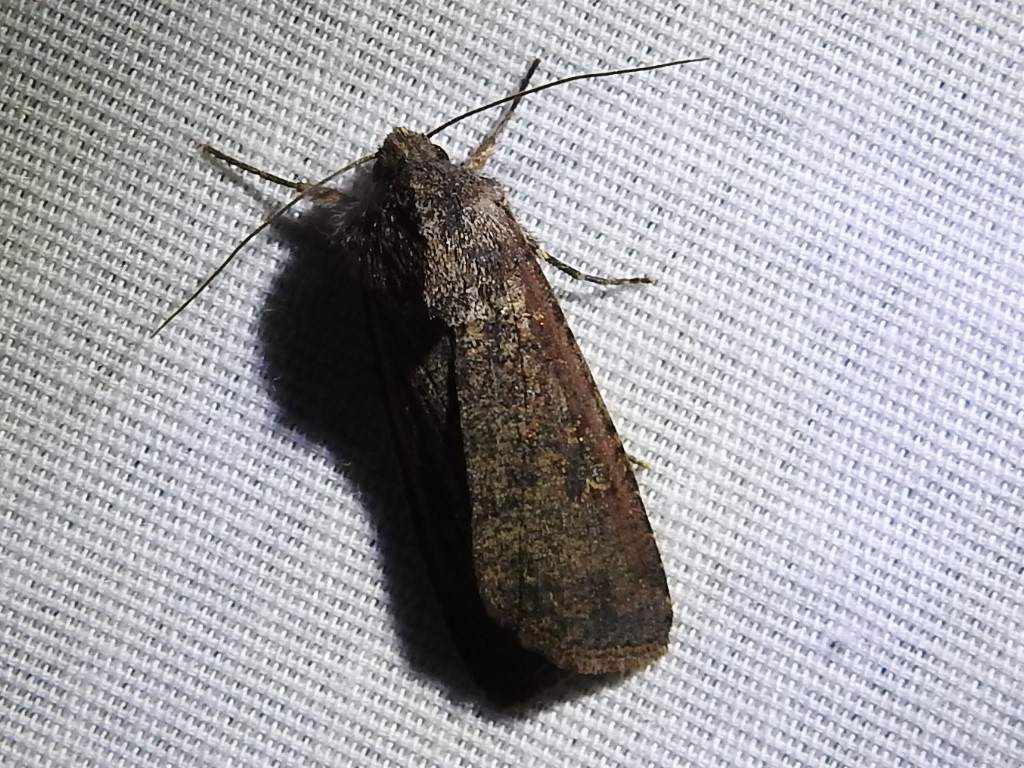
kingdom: Animalia
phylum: Arthropoda
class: Insecta
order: Lepidoptera
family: Noctuidae
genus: Peridroma
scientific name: Peridroma saucia
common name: Pearly underwing
